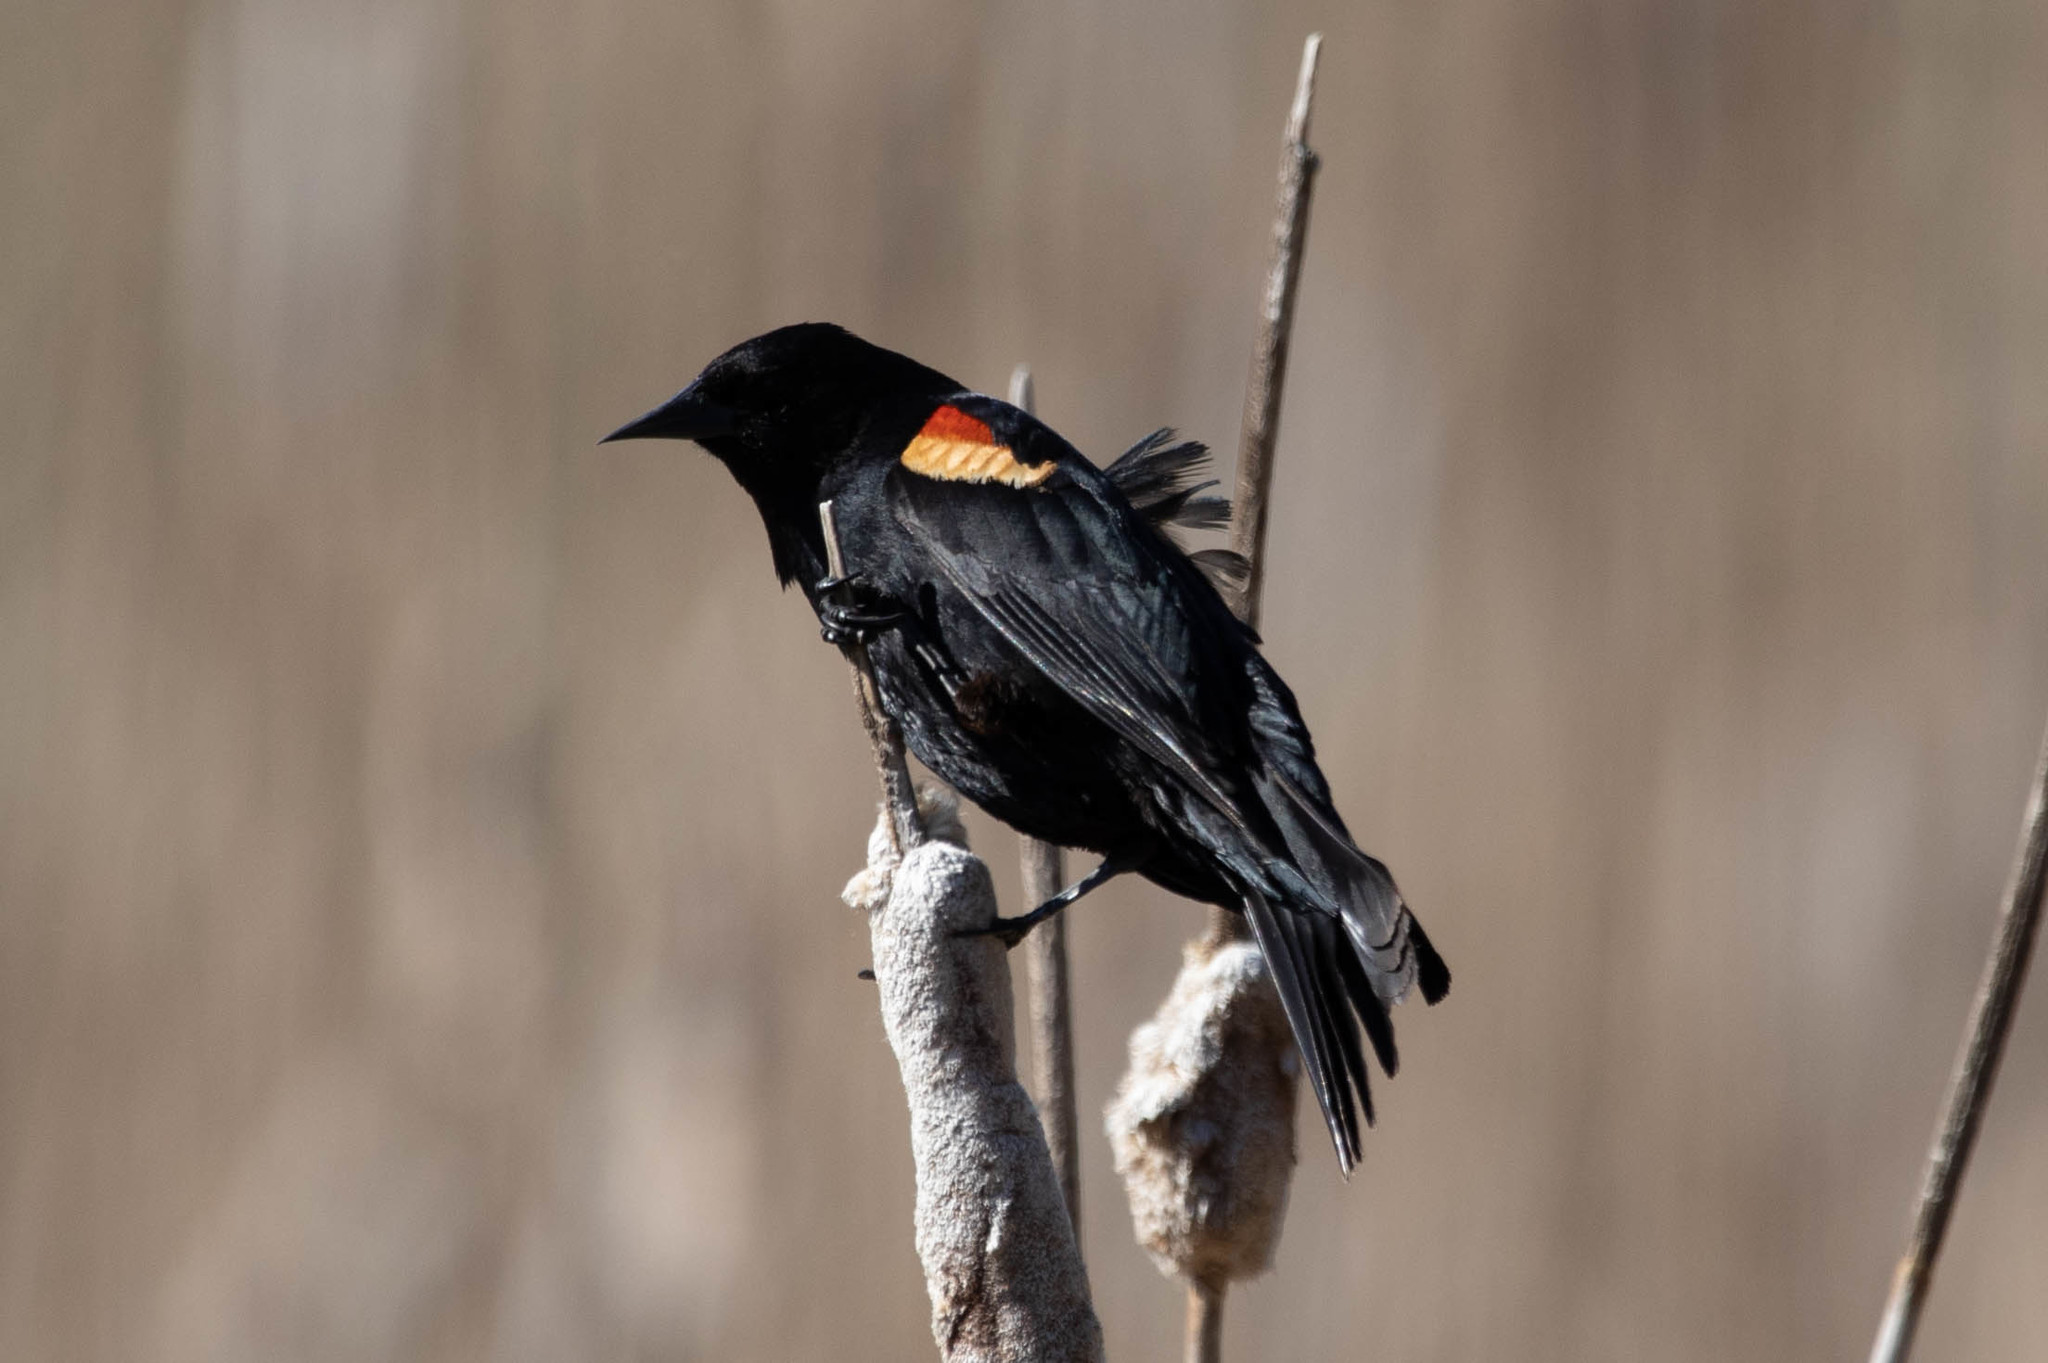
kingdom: Animalia
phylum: Chordata
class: Aves
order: Passeriformes
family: Icteridae
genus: Agelaius
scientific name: Agelaius phoeniceus
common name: Red-winged blackbird
